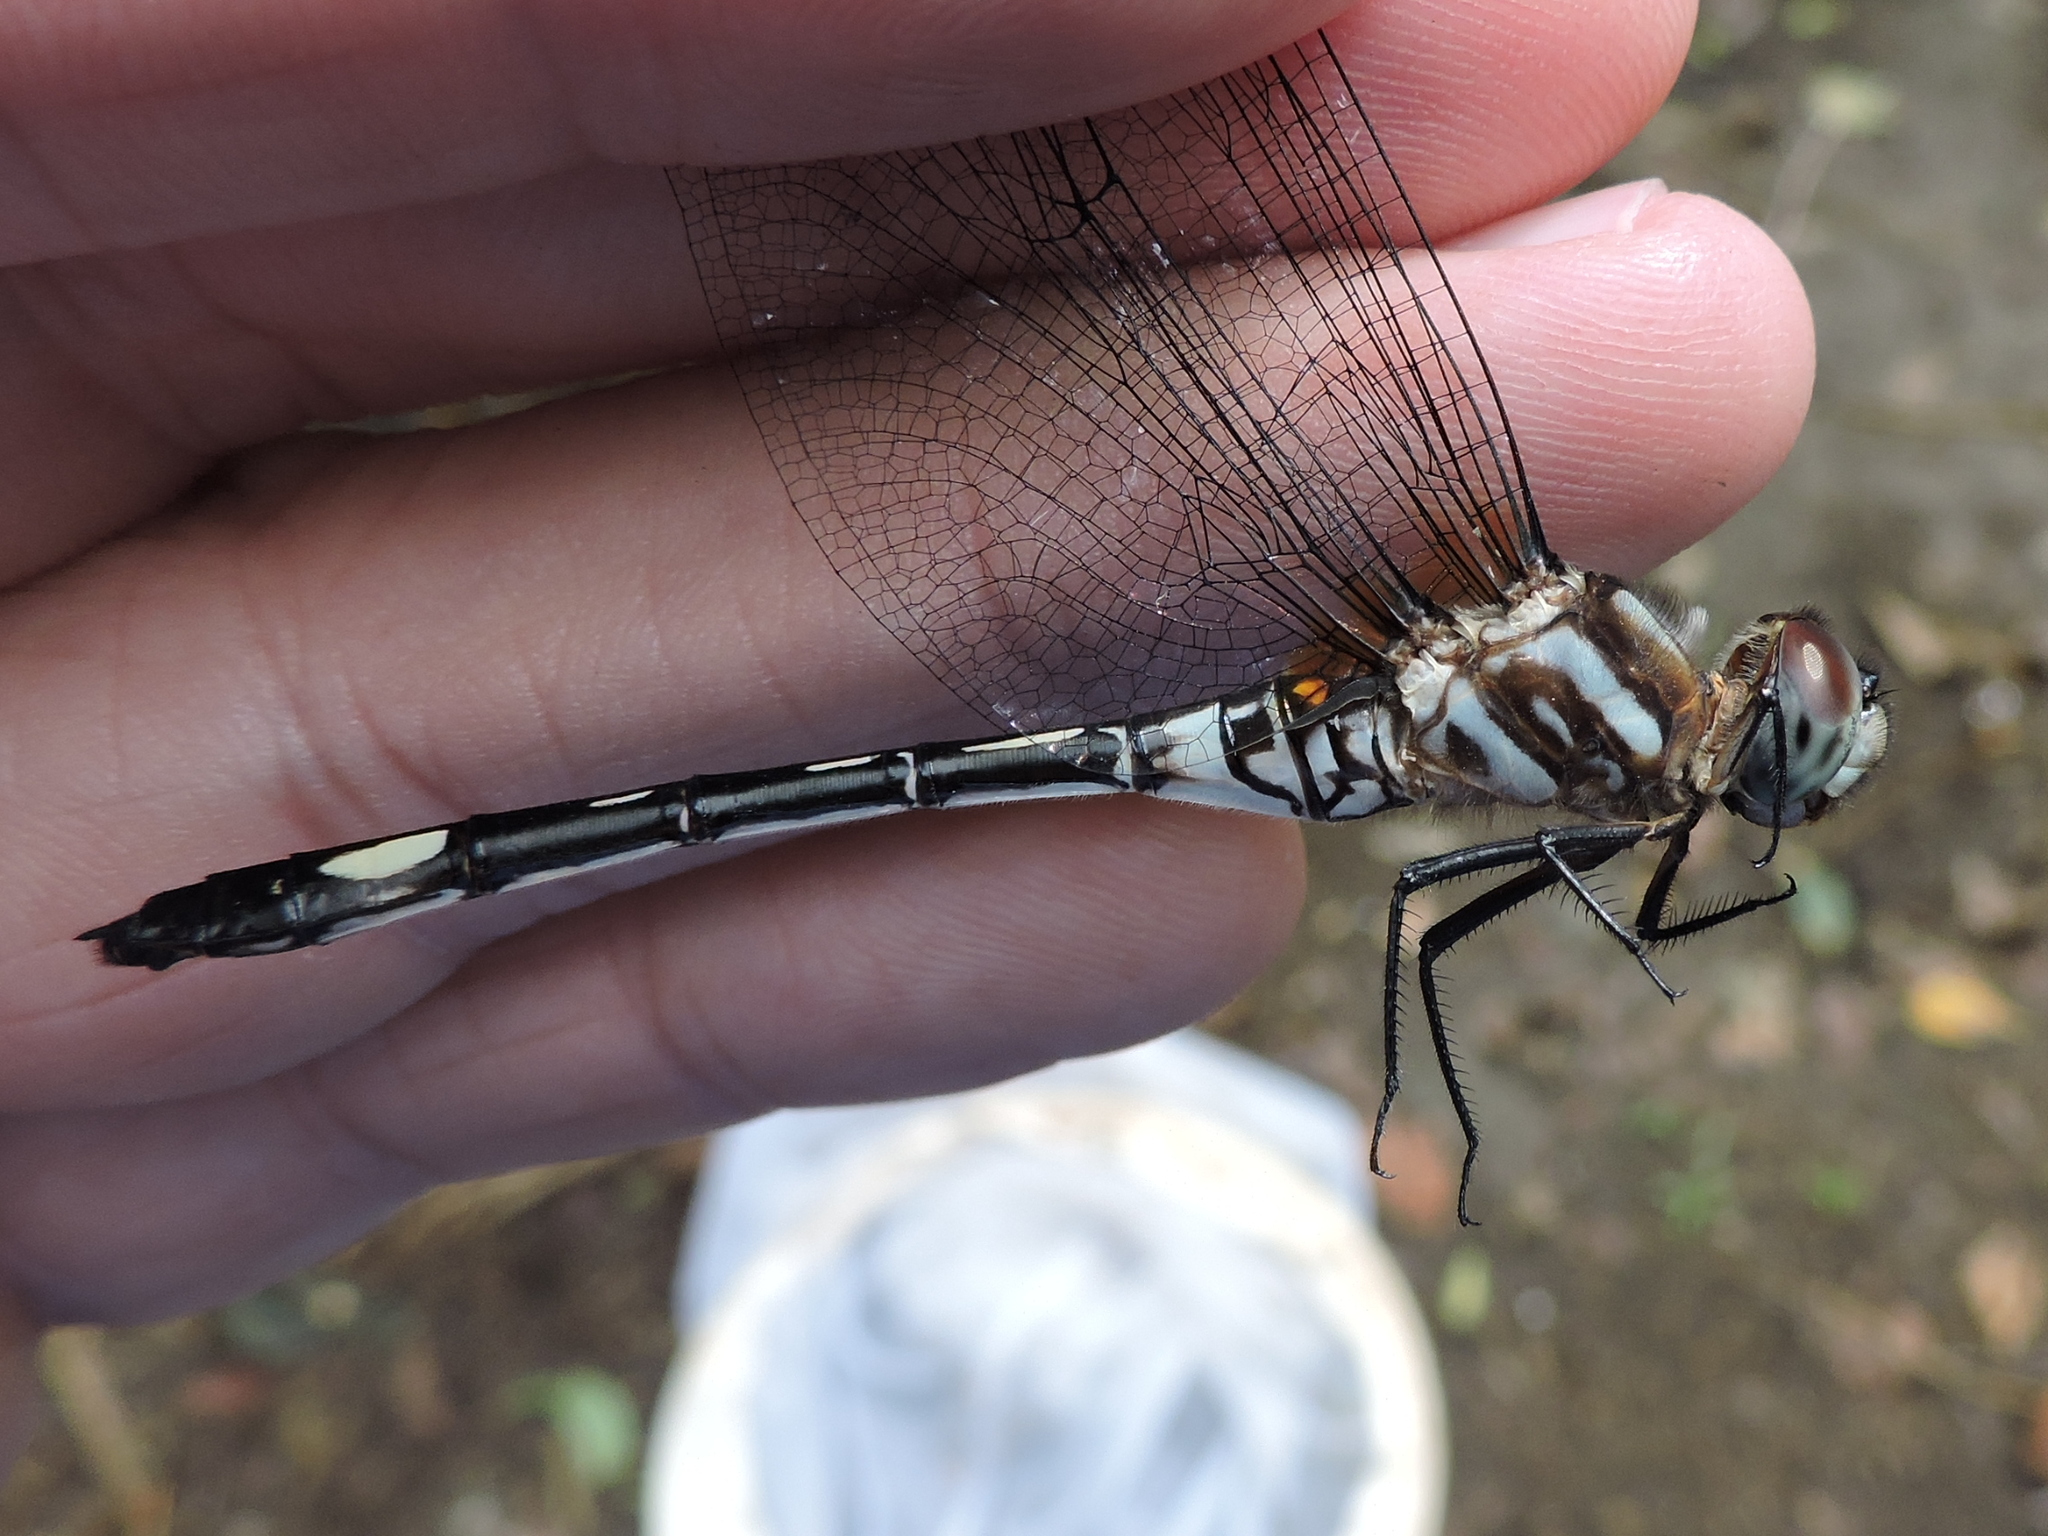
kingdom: Animalia
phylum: Arthropoda
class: Insecta
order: Odonata
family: Libellulidae
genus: Brechmorhoga
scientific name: Brechmorhoga mendax
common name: Pale-faced clubskimmer
